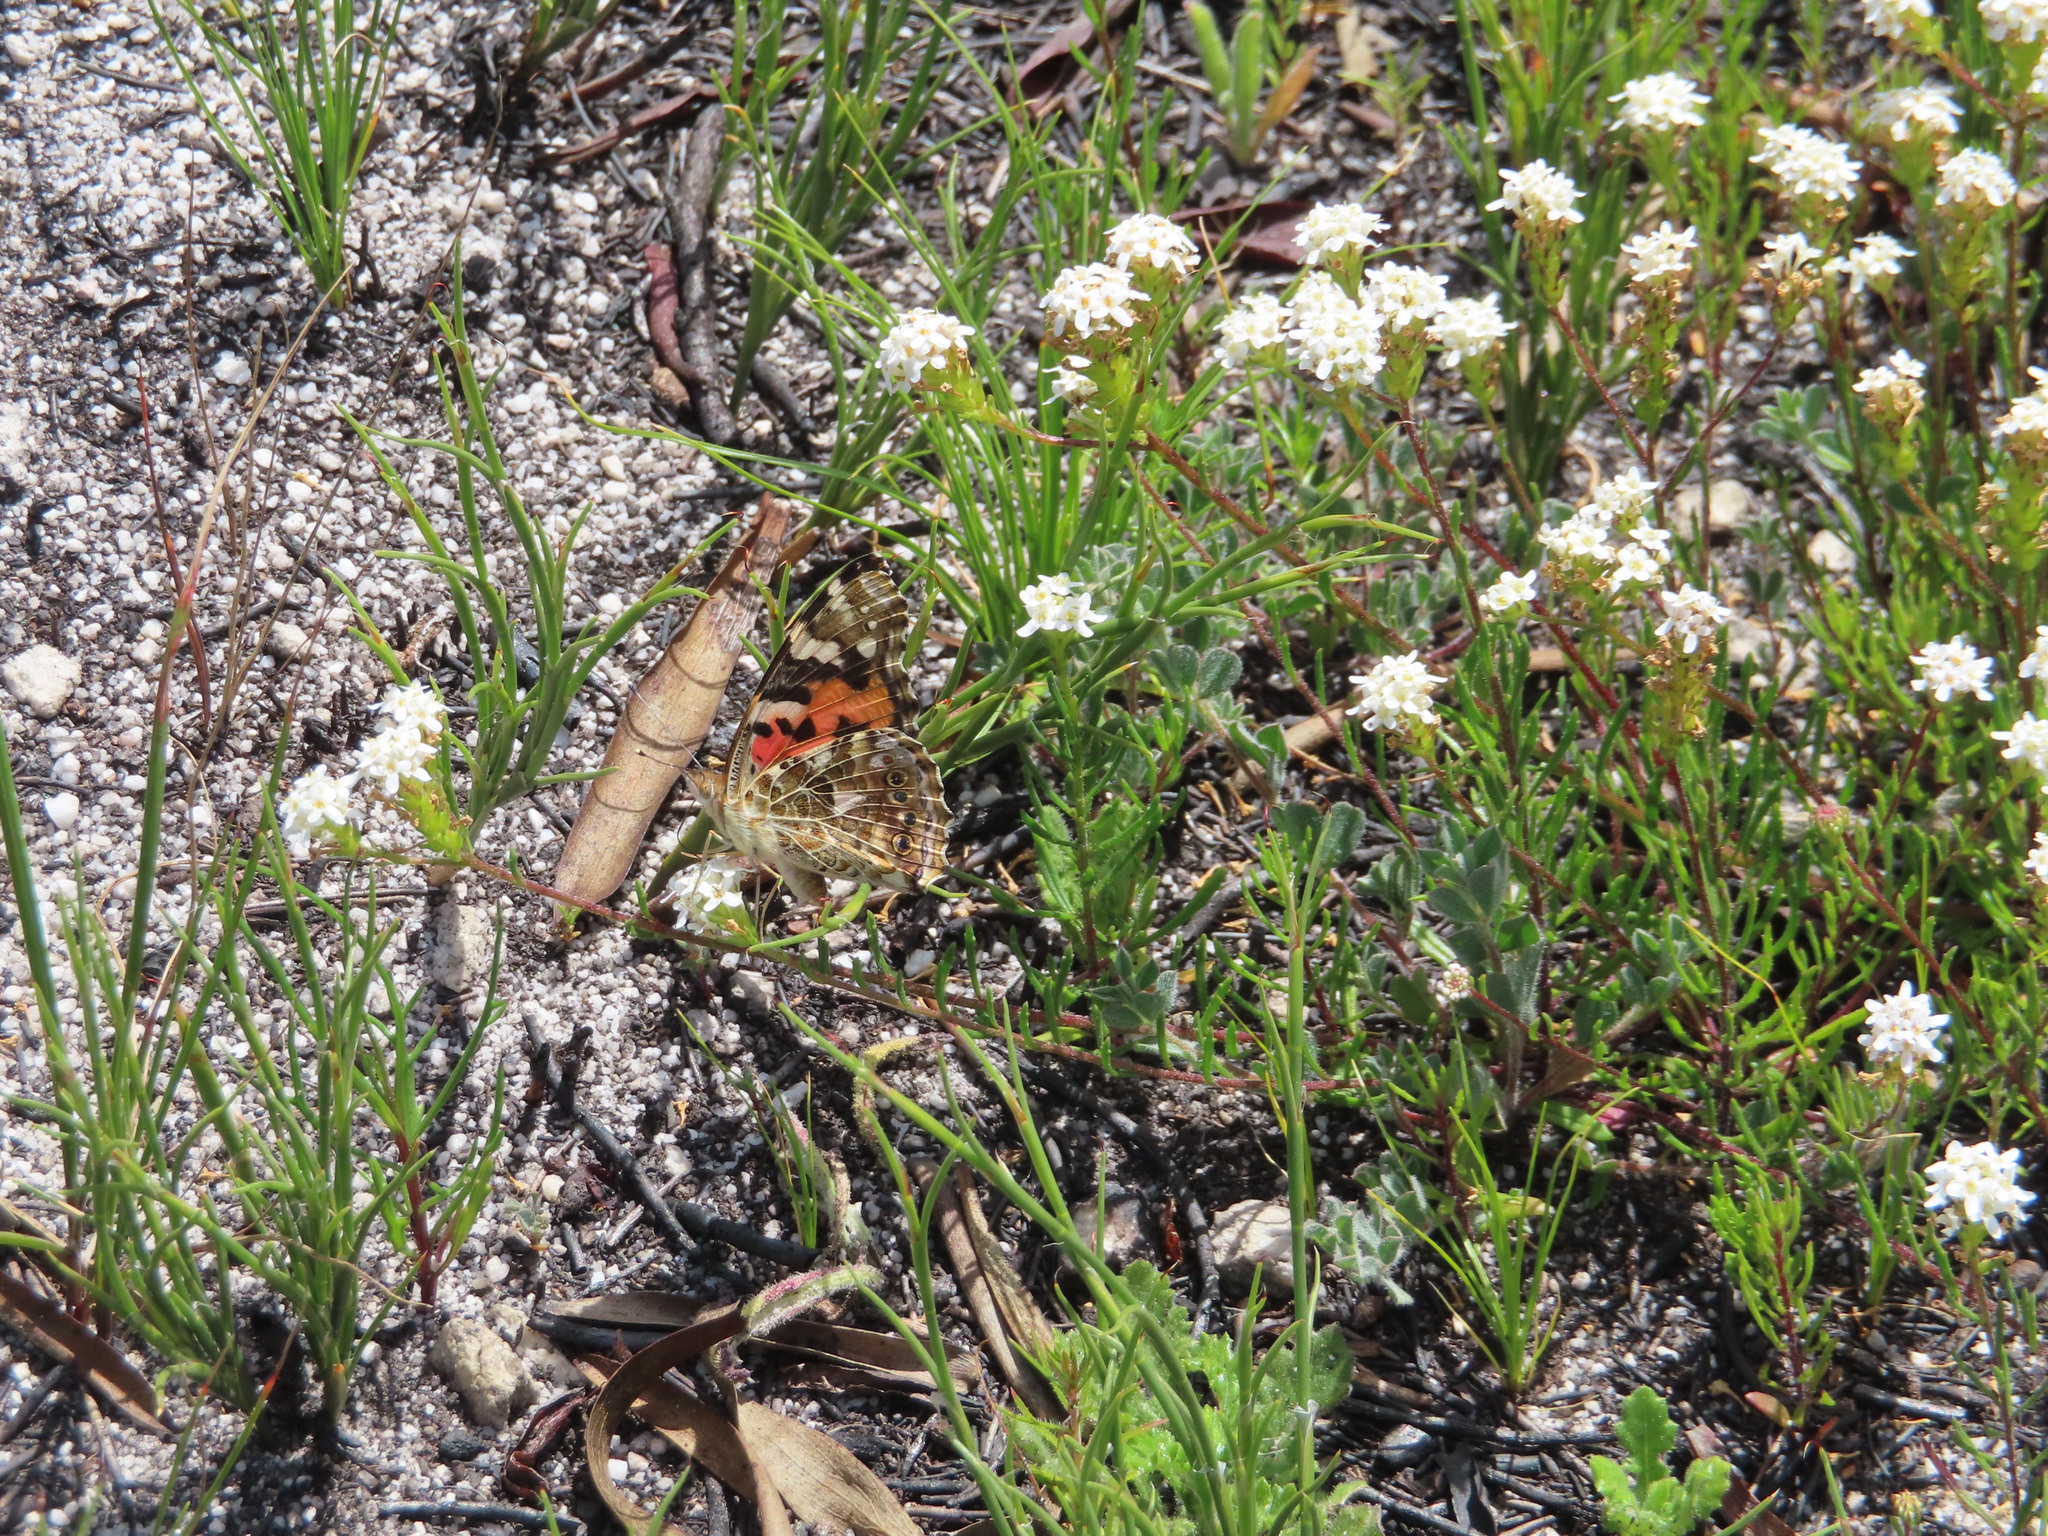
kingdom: Animalia
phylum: Arthropoda
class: Insecta
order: Lepidoptera
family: Nymphalidae
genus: Vanessa
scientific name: Vanessa cardui
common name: Painted lady
